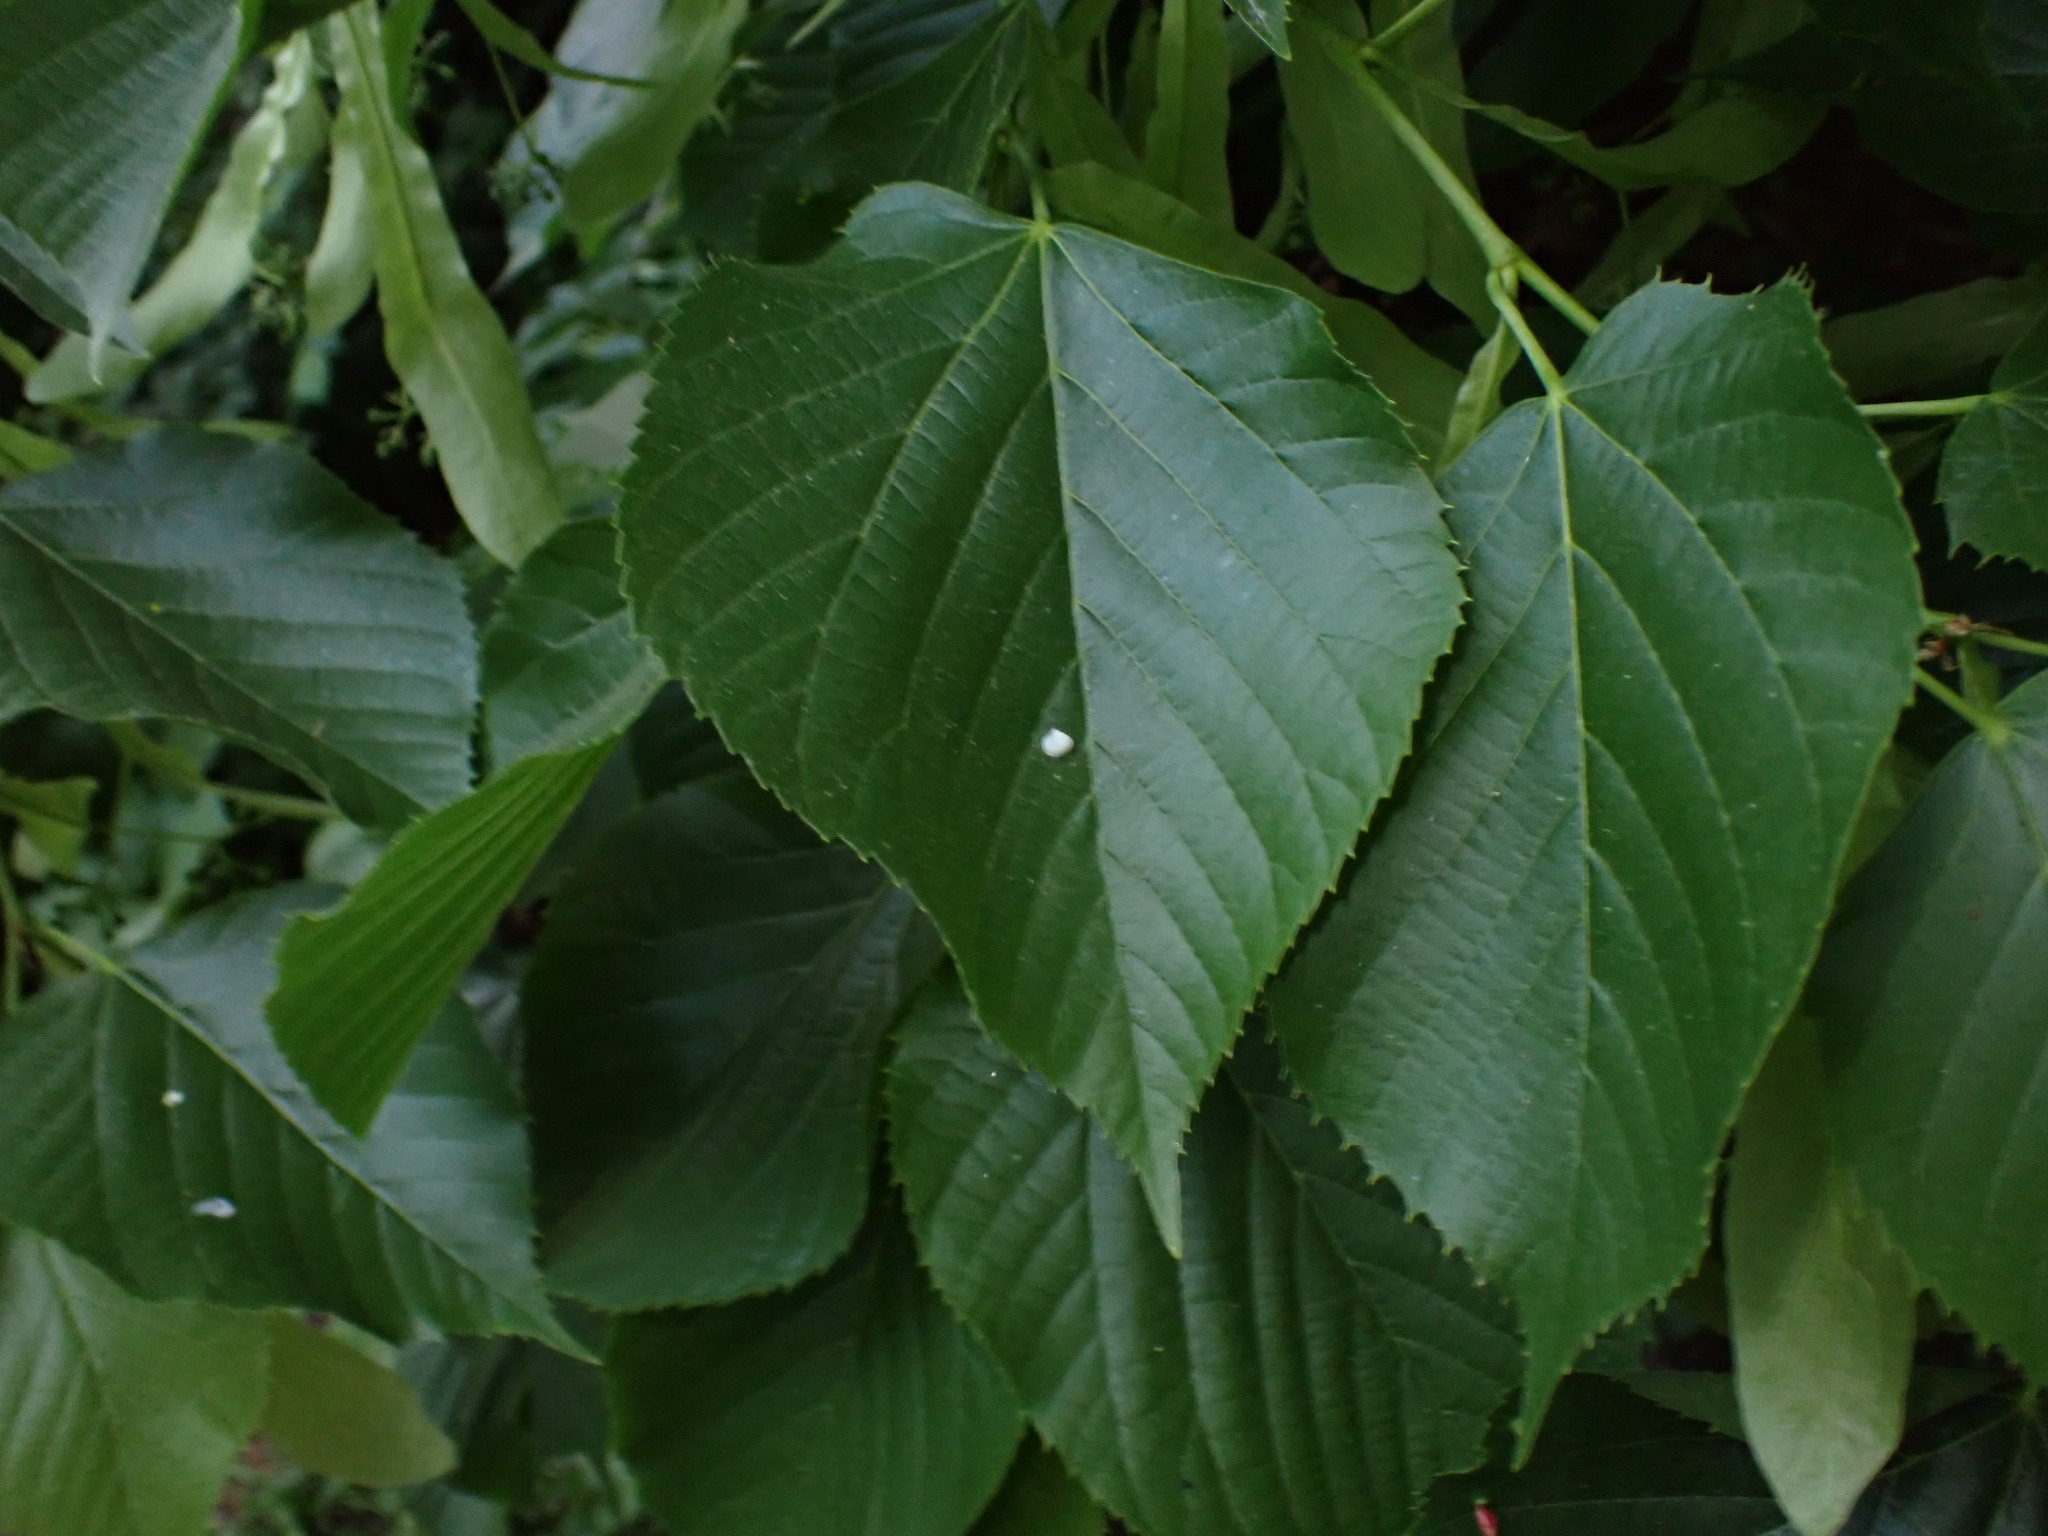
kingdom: Plantae
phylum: Tracheophyta
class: Magnoliopsida
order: Malvales
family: Malvaceae
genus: Tilia
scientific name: Tilia americana
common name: Basswood
